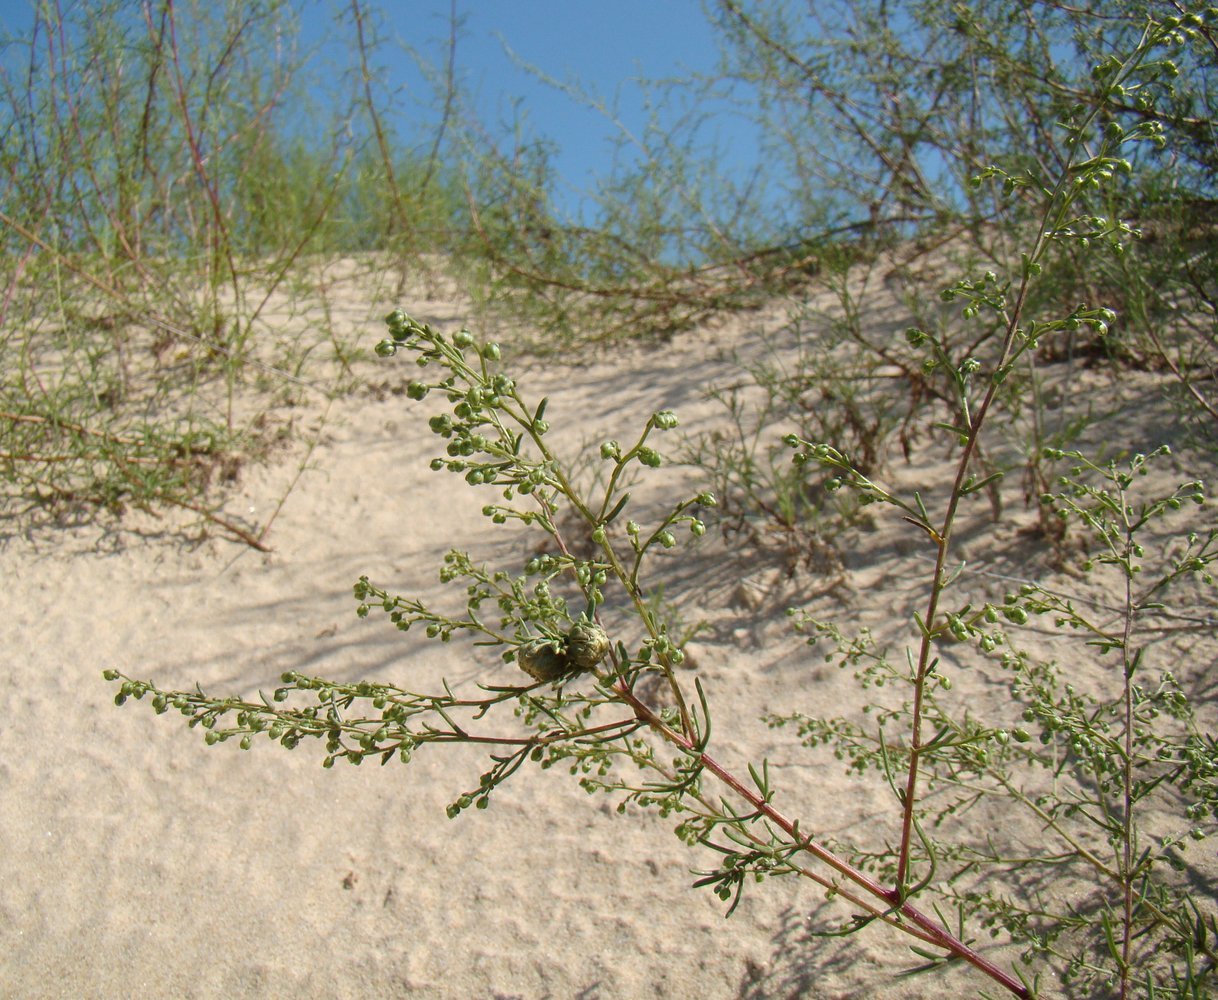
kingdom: Plantae
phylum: Tracheophyta
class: Magnoliopsida
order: Asterales
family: Asteraceae
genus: Artemisia
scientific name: Artemisia arenaria
